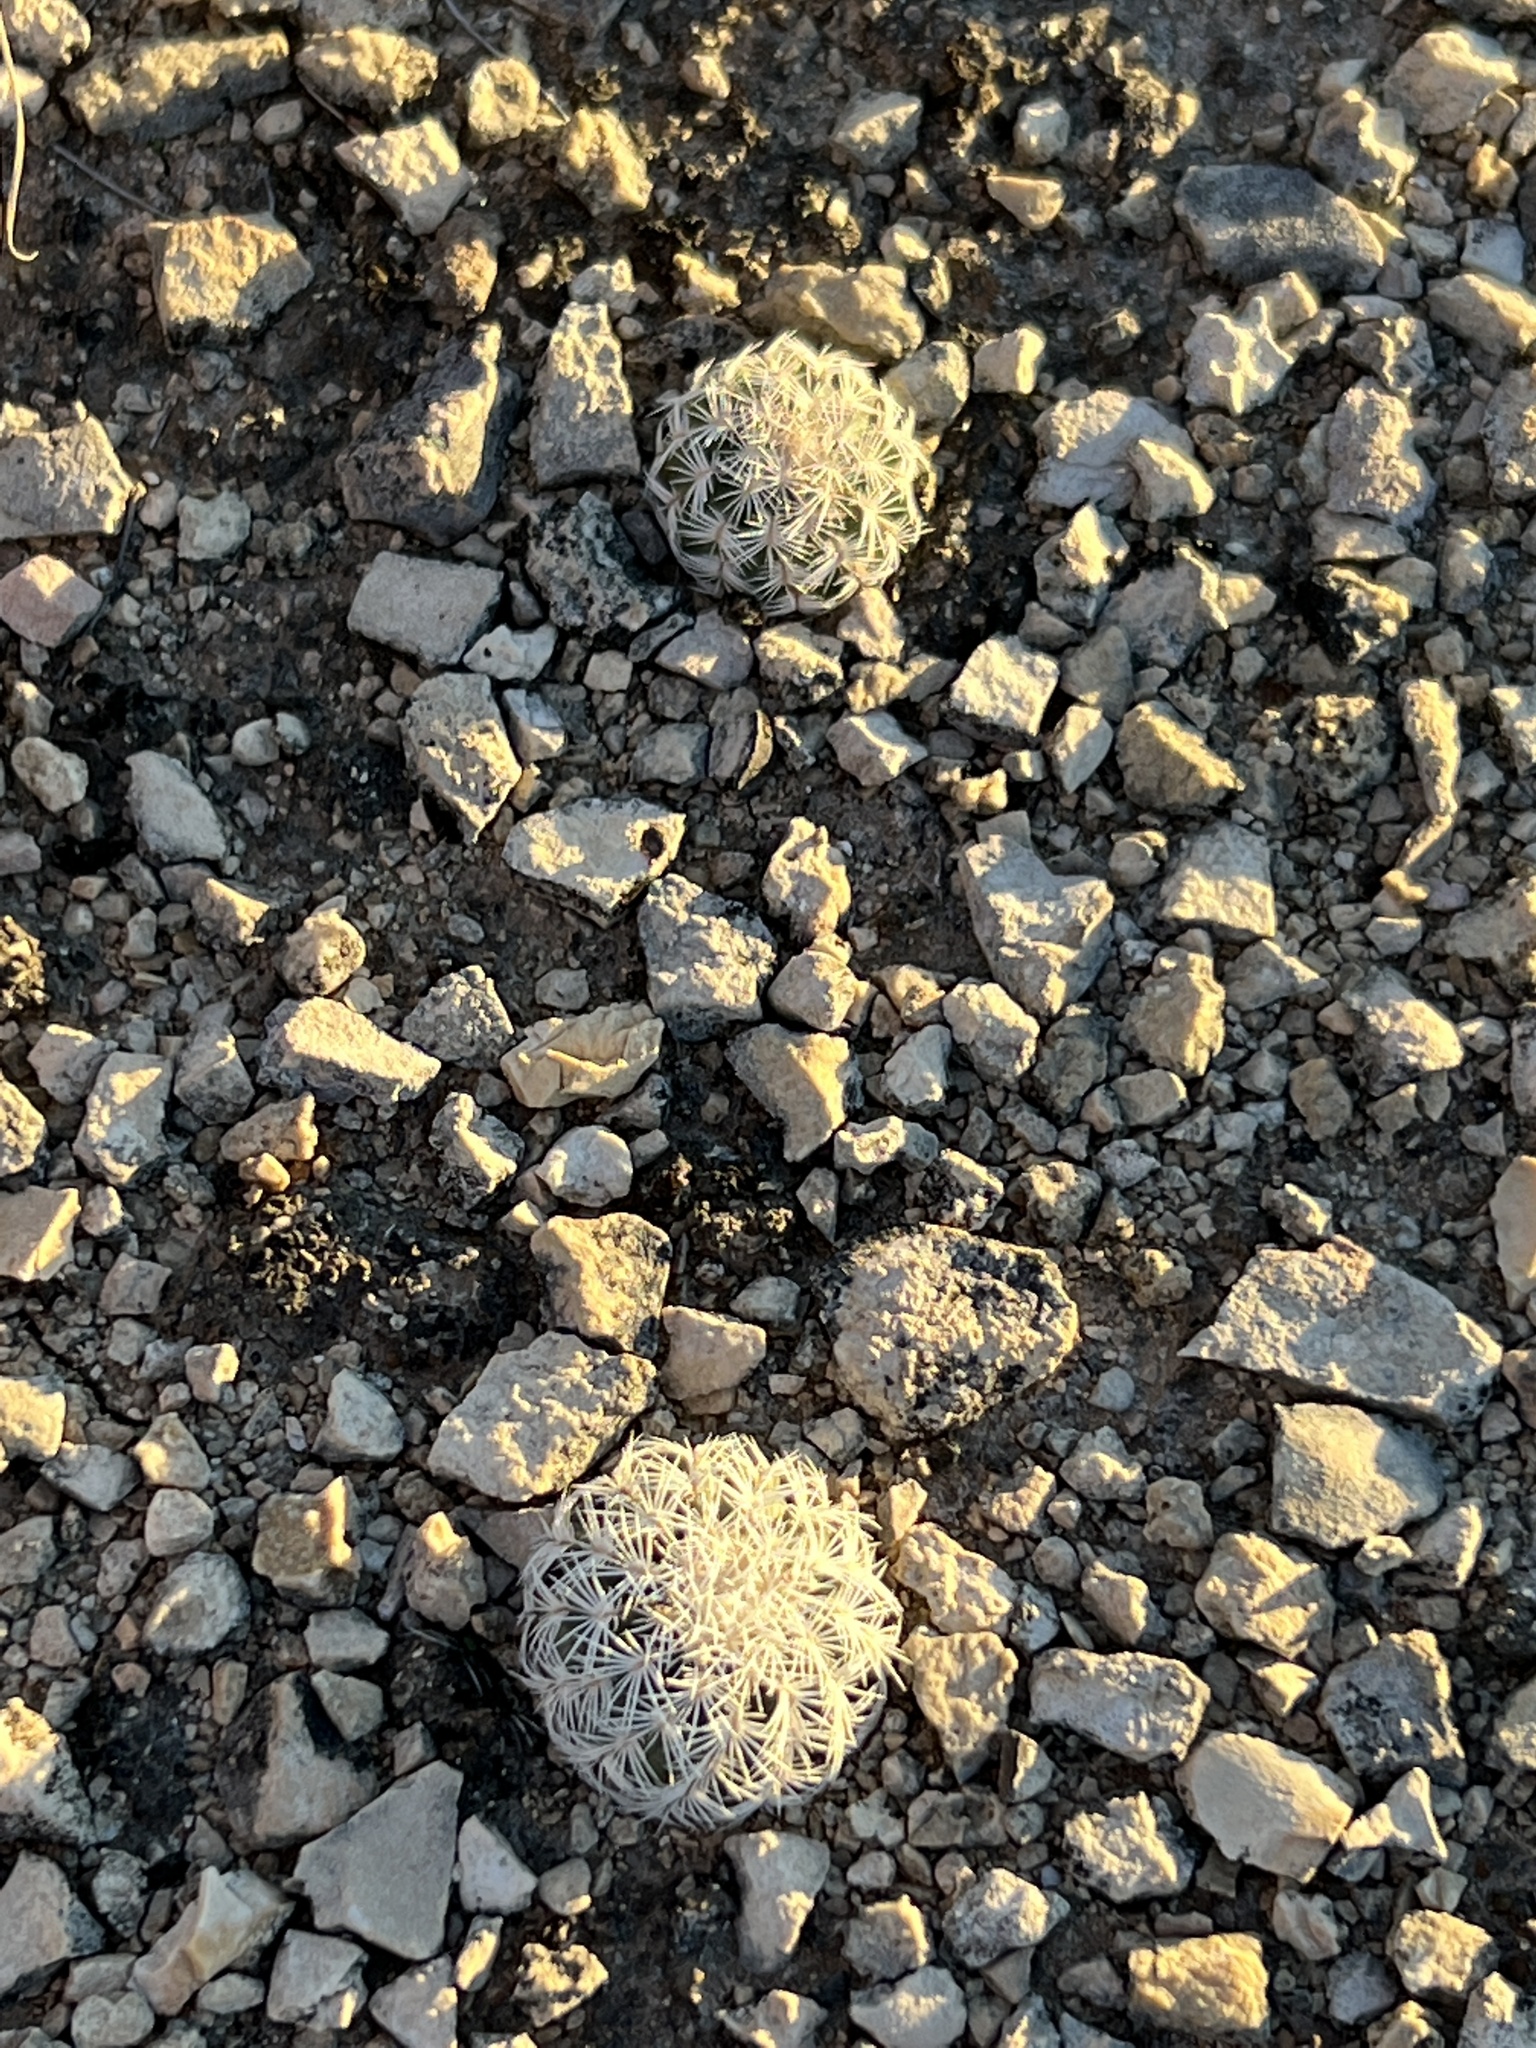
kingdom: Plantae
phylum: Tracheophyta
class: Magnoliopsida
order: Caryophyllales
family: Cactaceae
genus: Echinocereus
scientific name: Echinocereus reichenbachii
